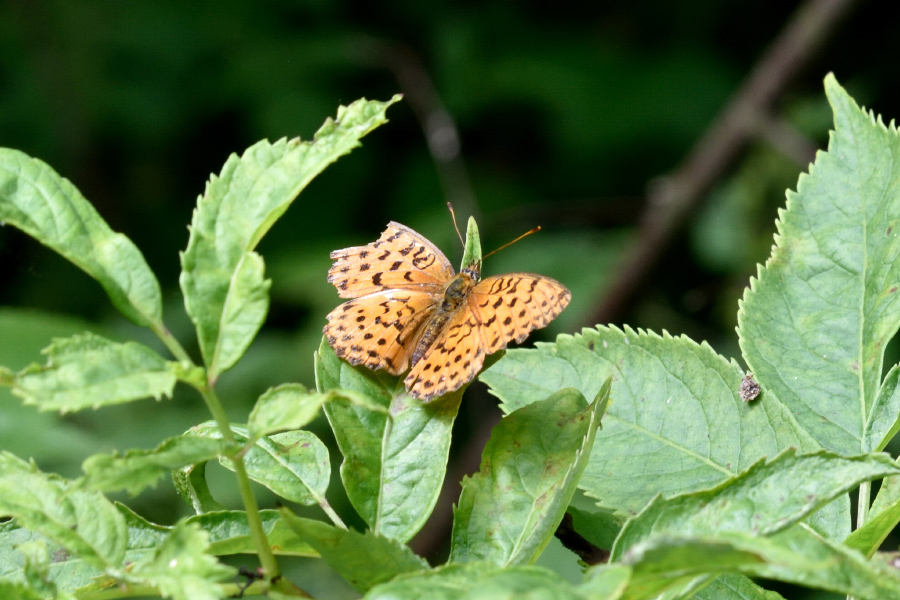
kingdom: Animalia
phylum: Arthropoda
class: Insecta
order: Lepidoptera
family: Nymphalidae
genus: Brenthis
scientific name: Brenthis daphne
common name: Marbled fritillary
